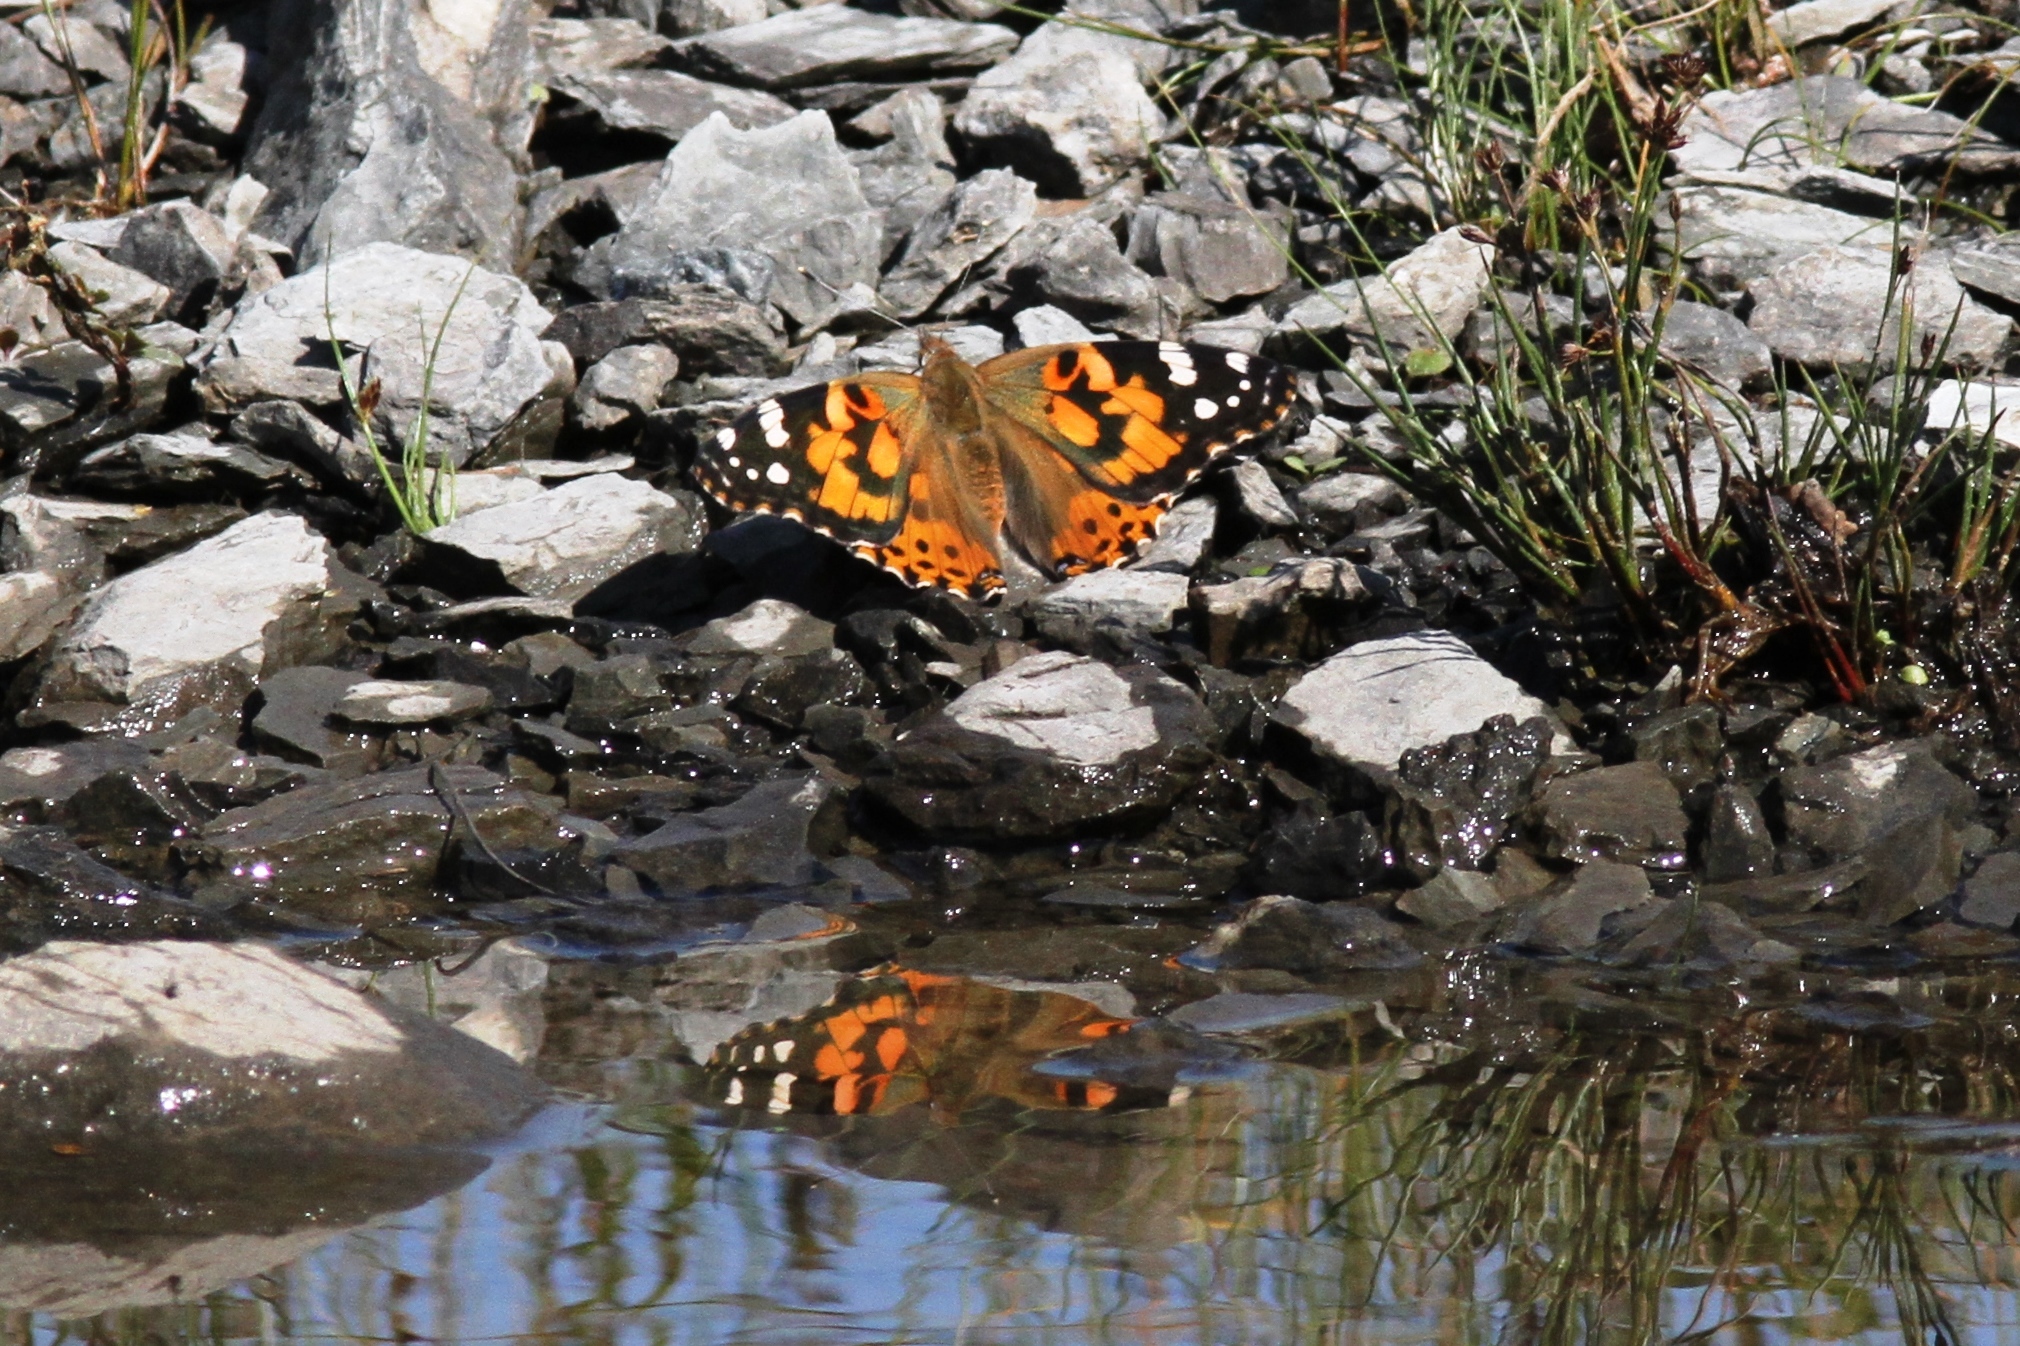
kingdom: Animalia
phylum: Arthropoda
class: Insecta
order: Lepidoptera
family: Nymphalidae
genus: Vanessa
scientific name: Vanessa cardui
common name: Painted lady
